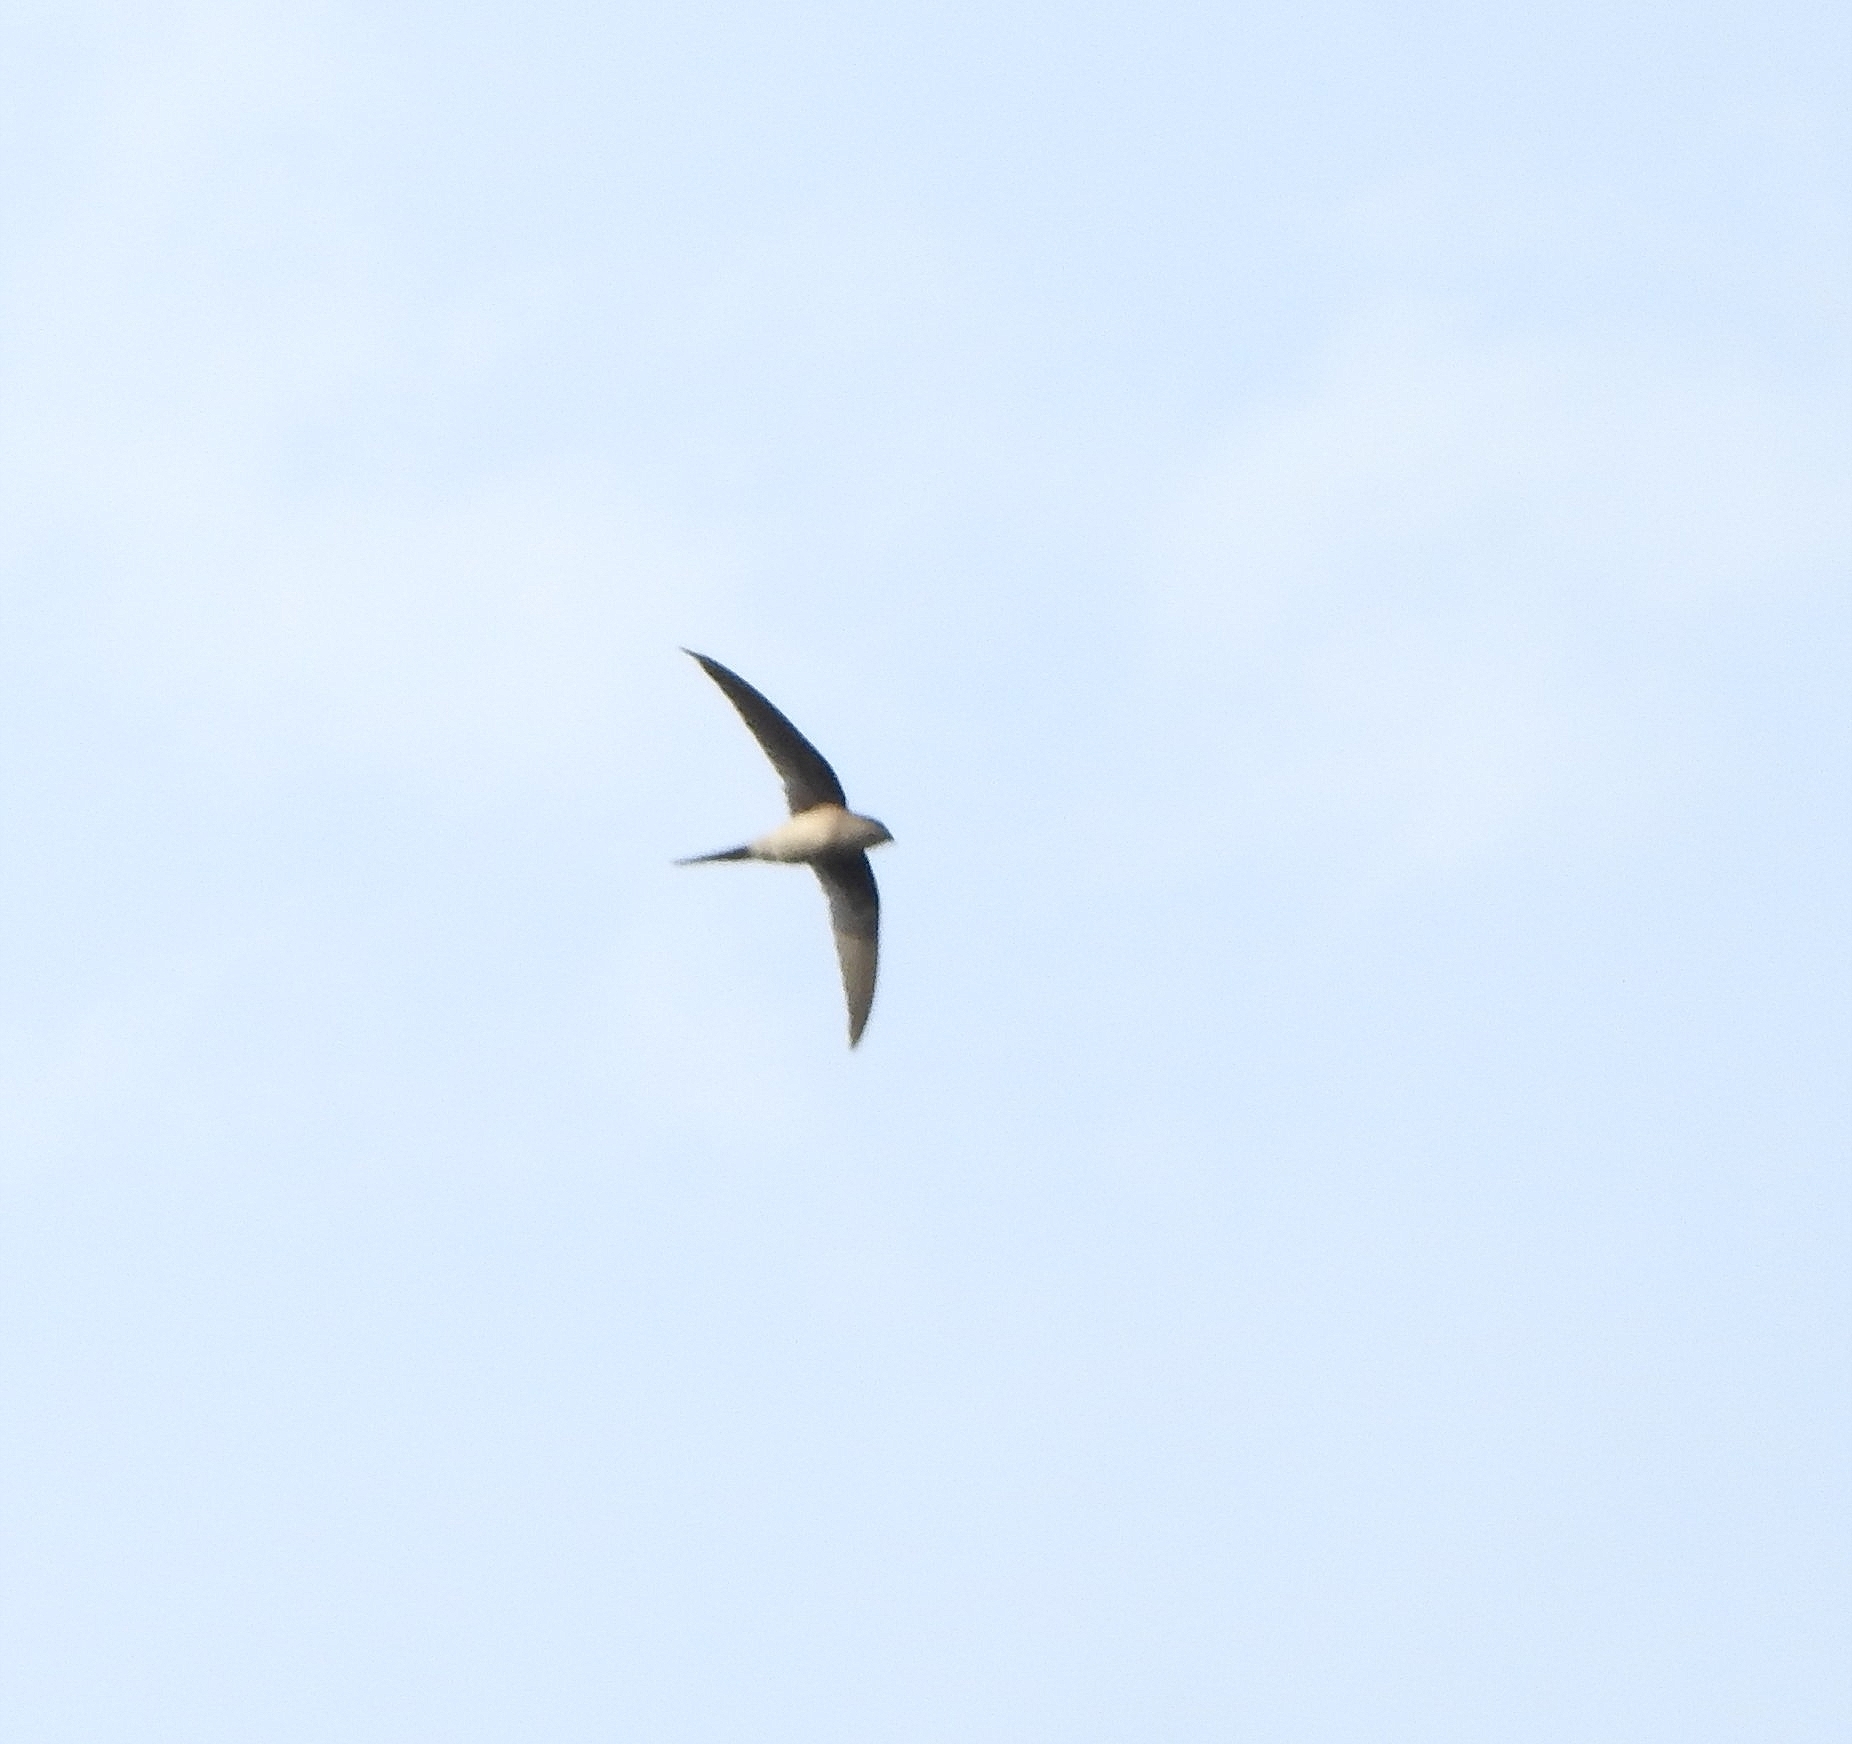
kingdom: Animalia
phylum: Chordata
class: Aves
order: Apodiformes
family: Apodidae
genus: Cypsiurus
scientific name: Cypsiurus balasiensis
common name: Asian palm swift
